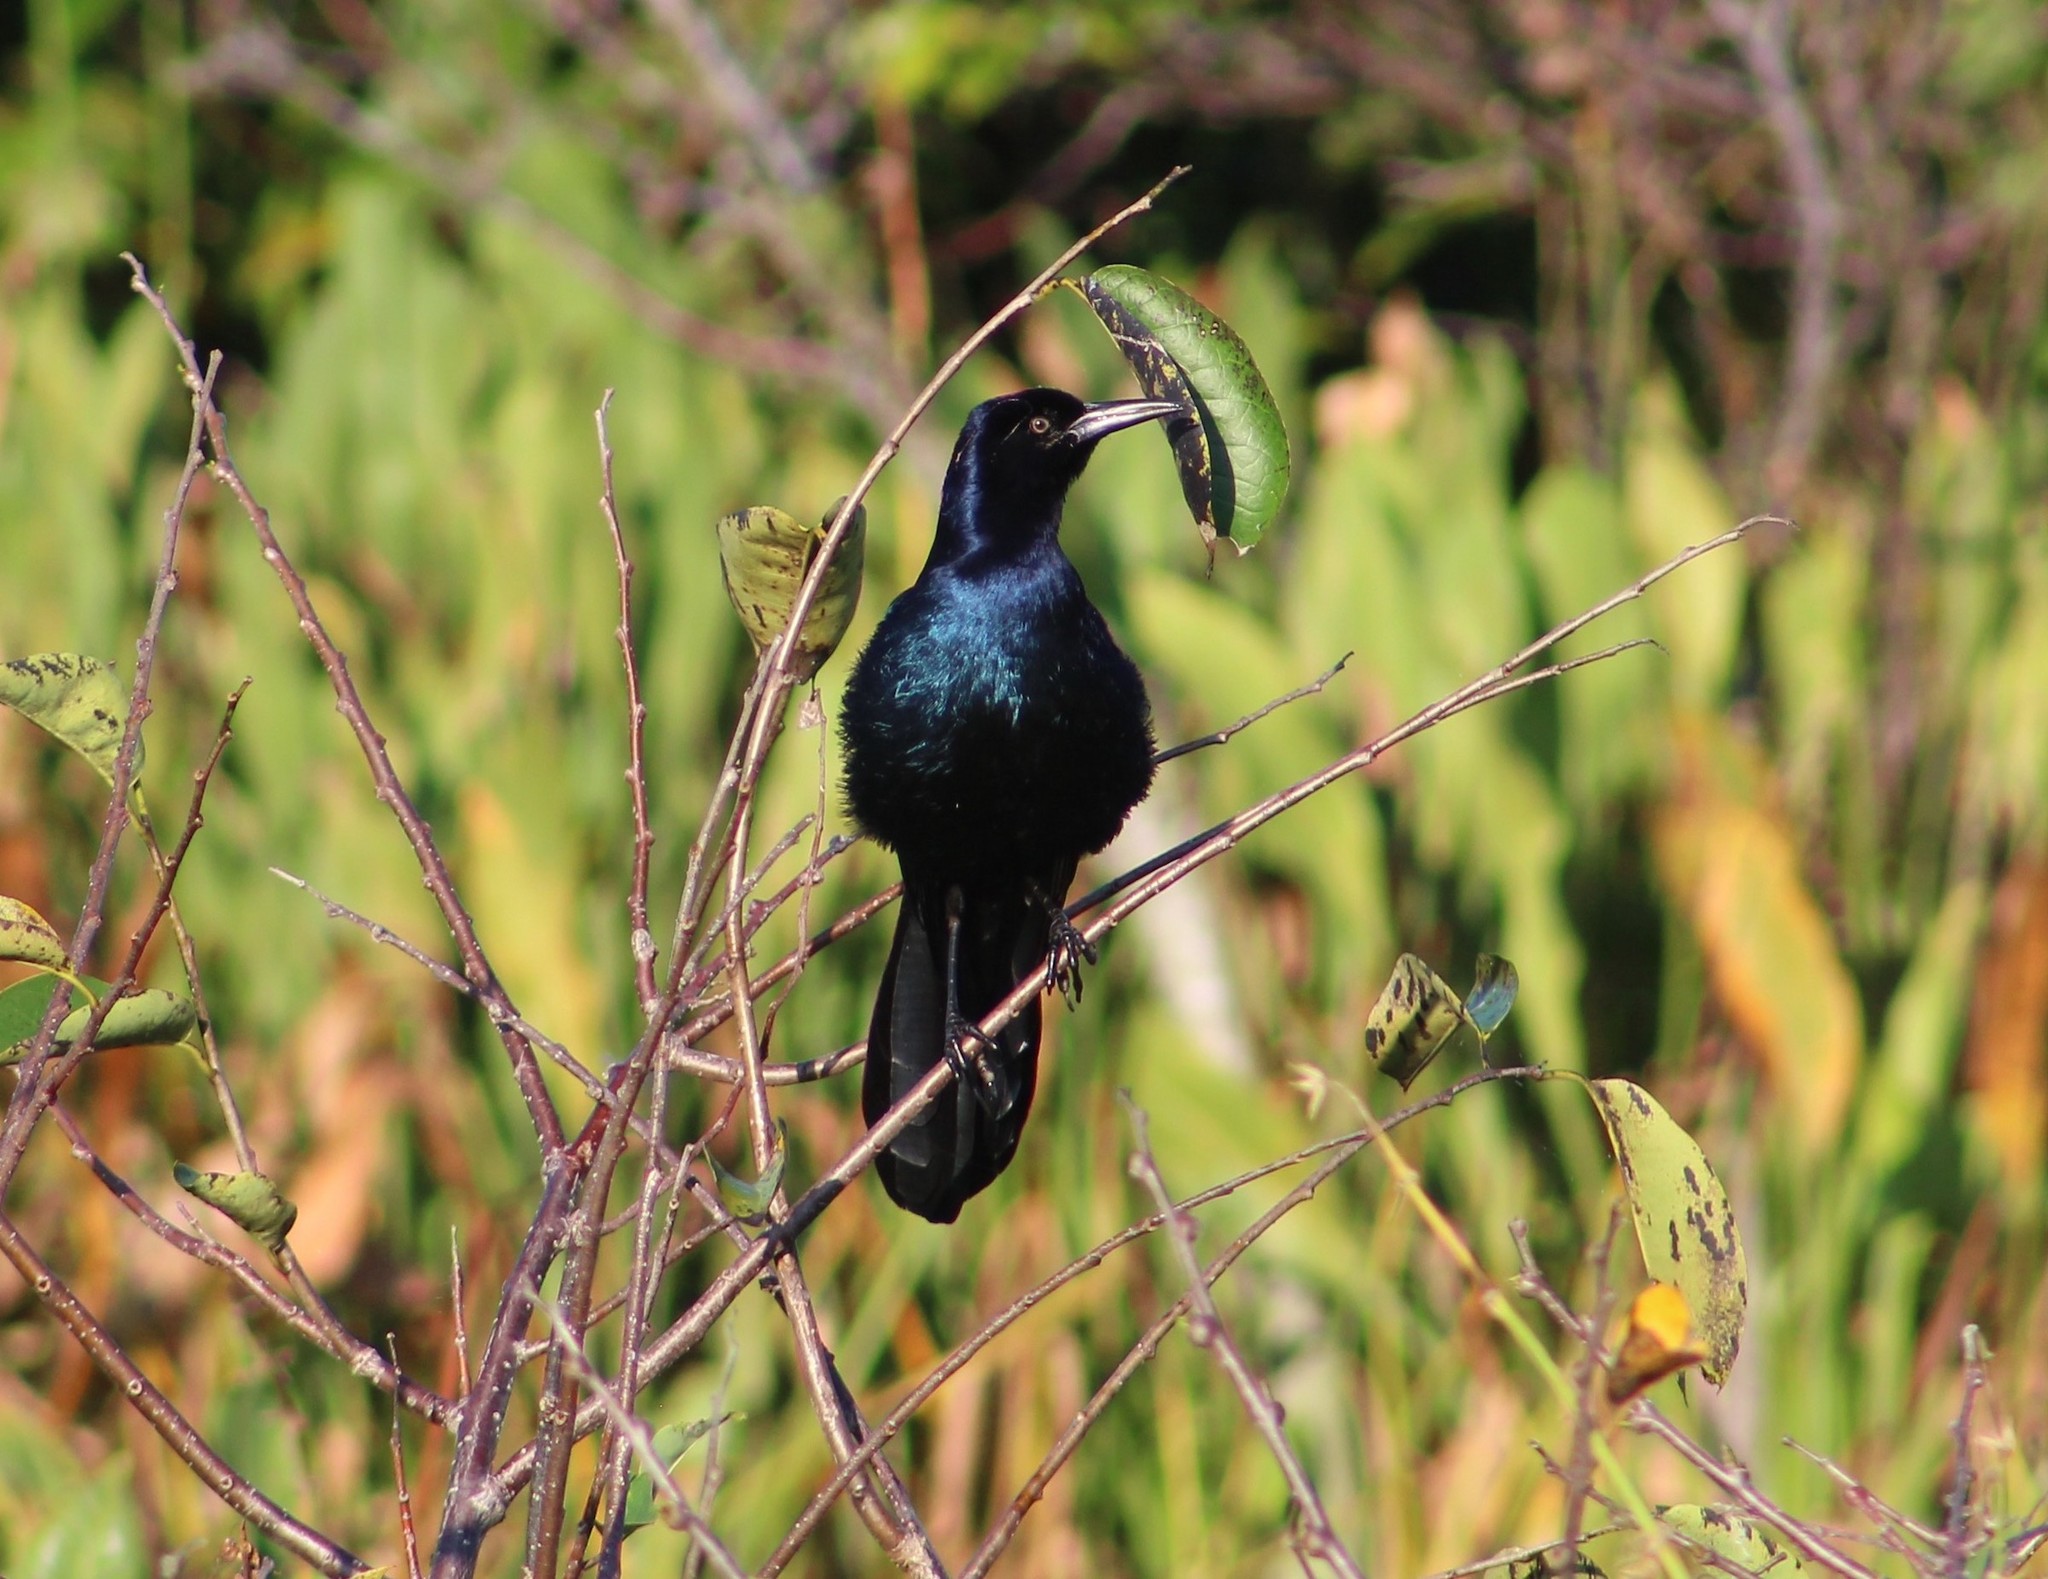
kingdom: Animalia
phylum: Chordata
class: Aves
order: Passeriformes
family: Icteridae
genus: Quiscalus
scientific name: Quiscalus major
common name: Boat-tailed grackle
